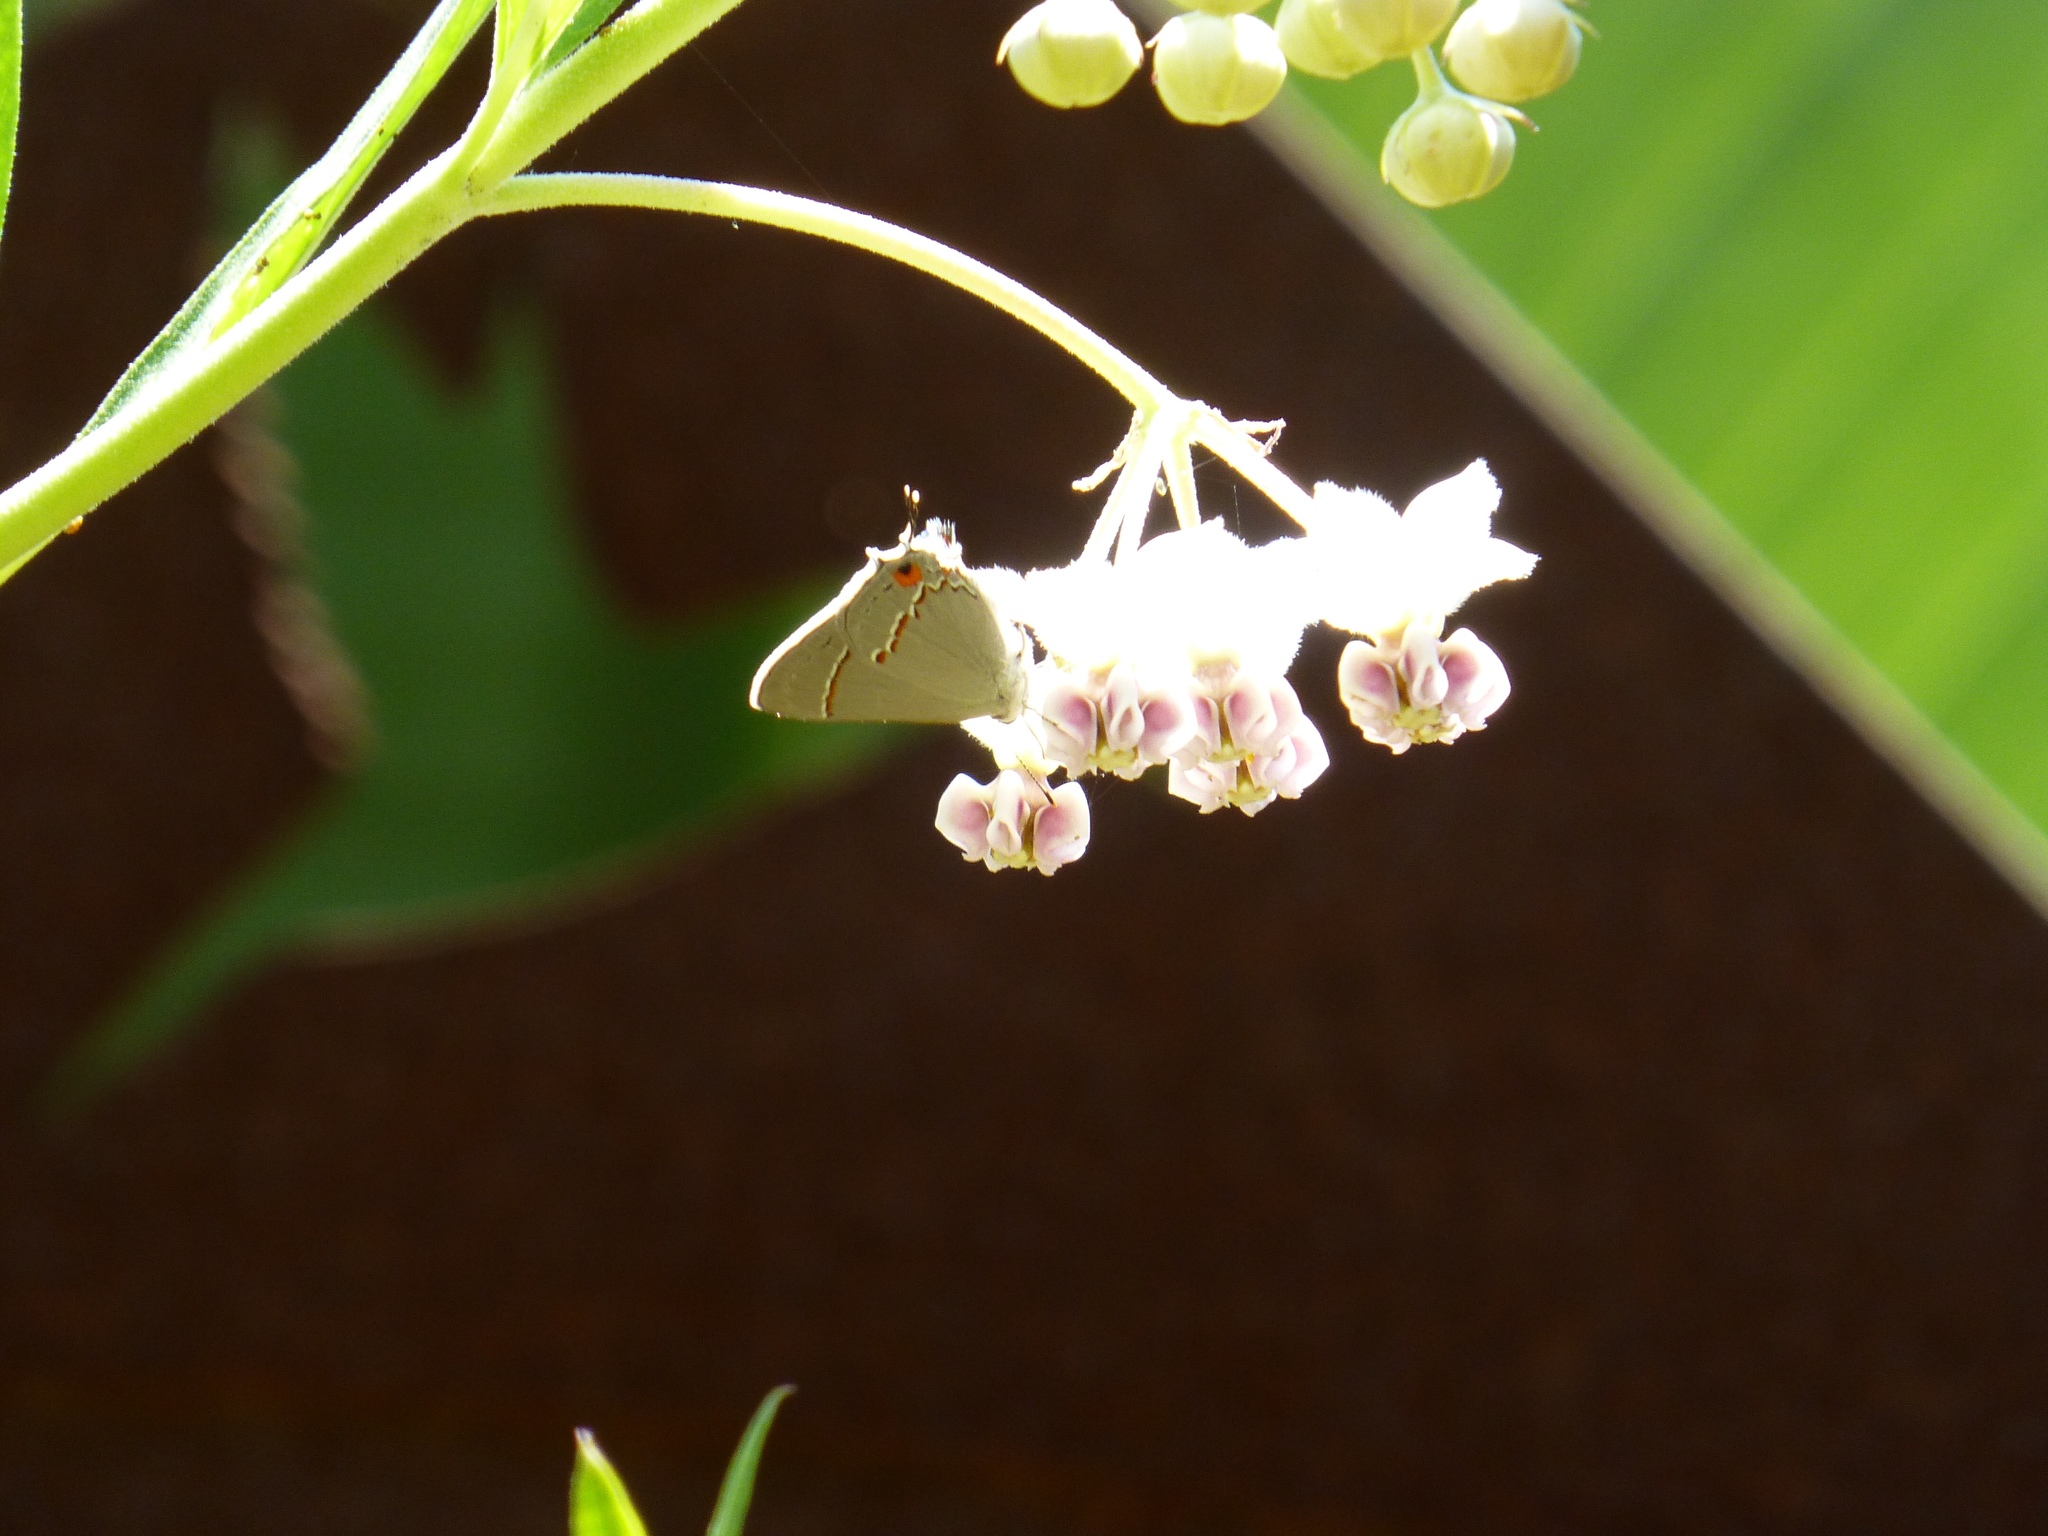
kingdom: Animalia
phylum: Arthropoda
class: Insecta
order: Lepidoptera
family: Lycaenidae
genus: Strymon
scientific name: Strymon melinus
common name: Gray hairstreak
